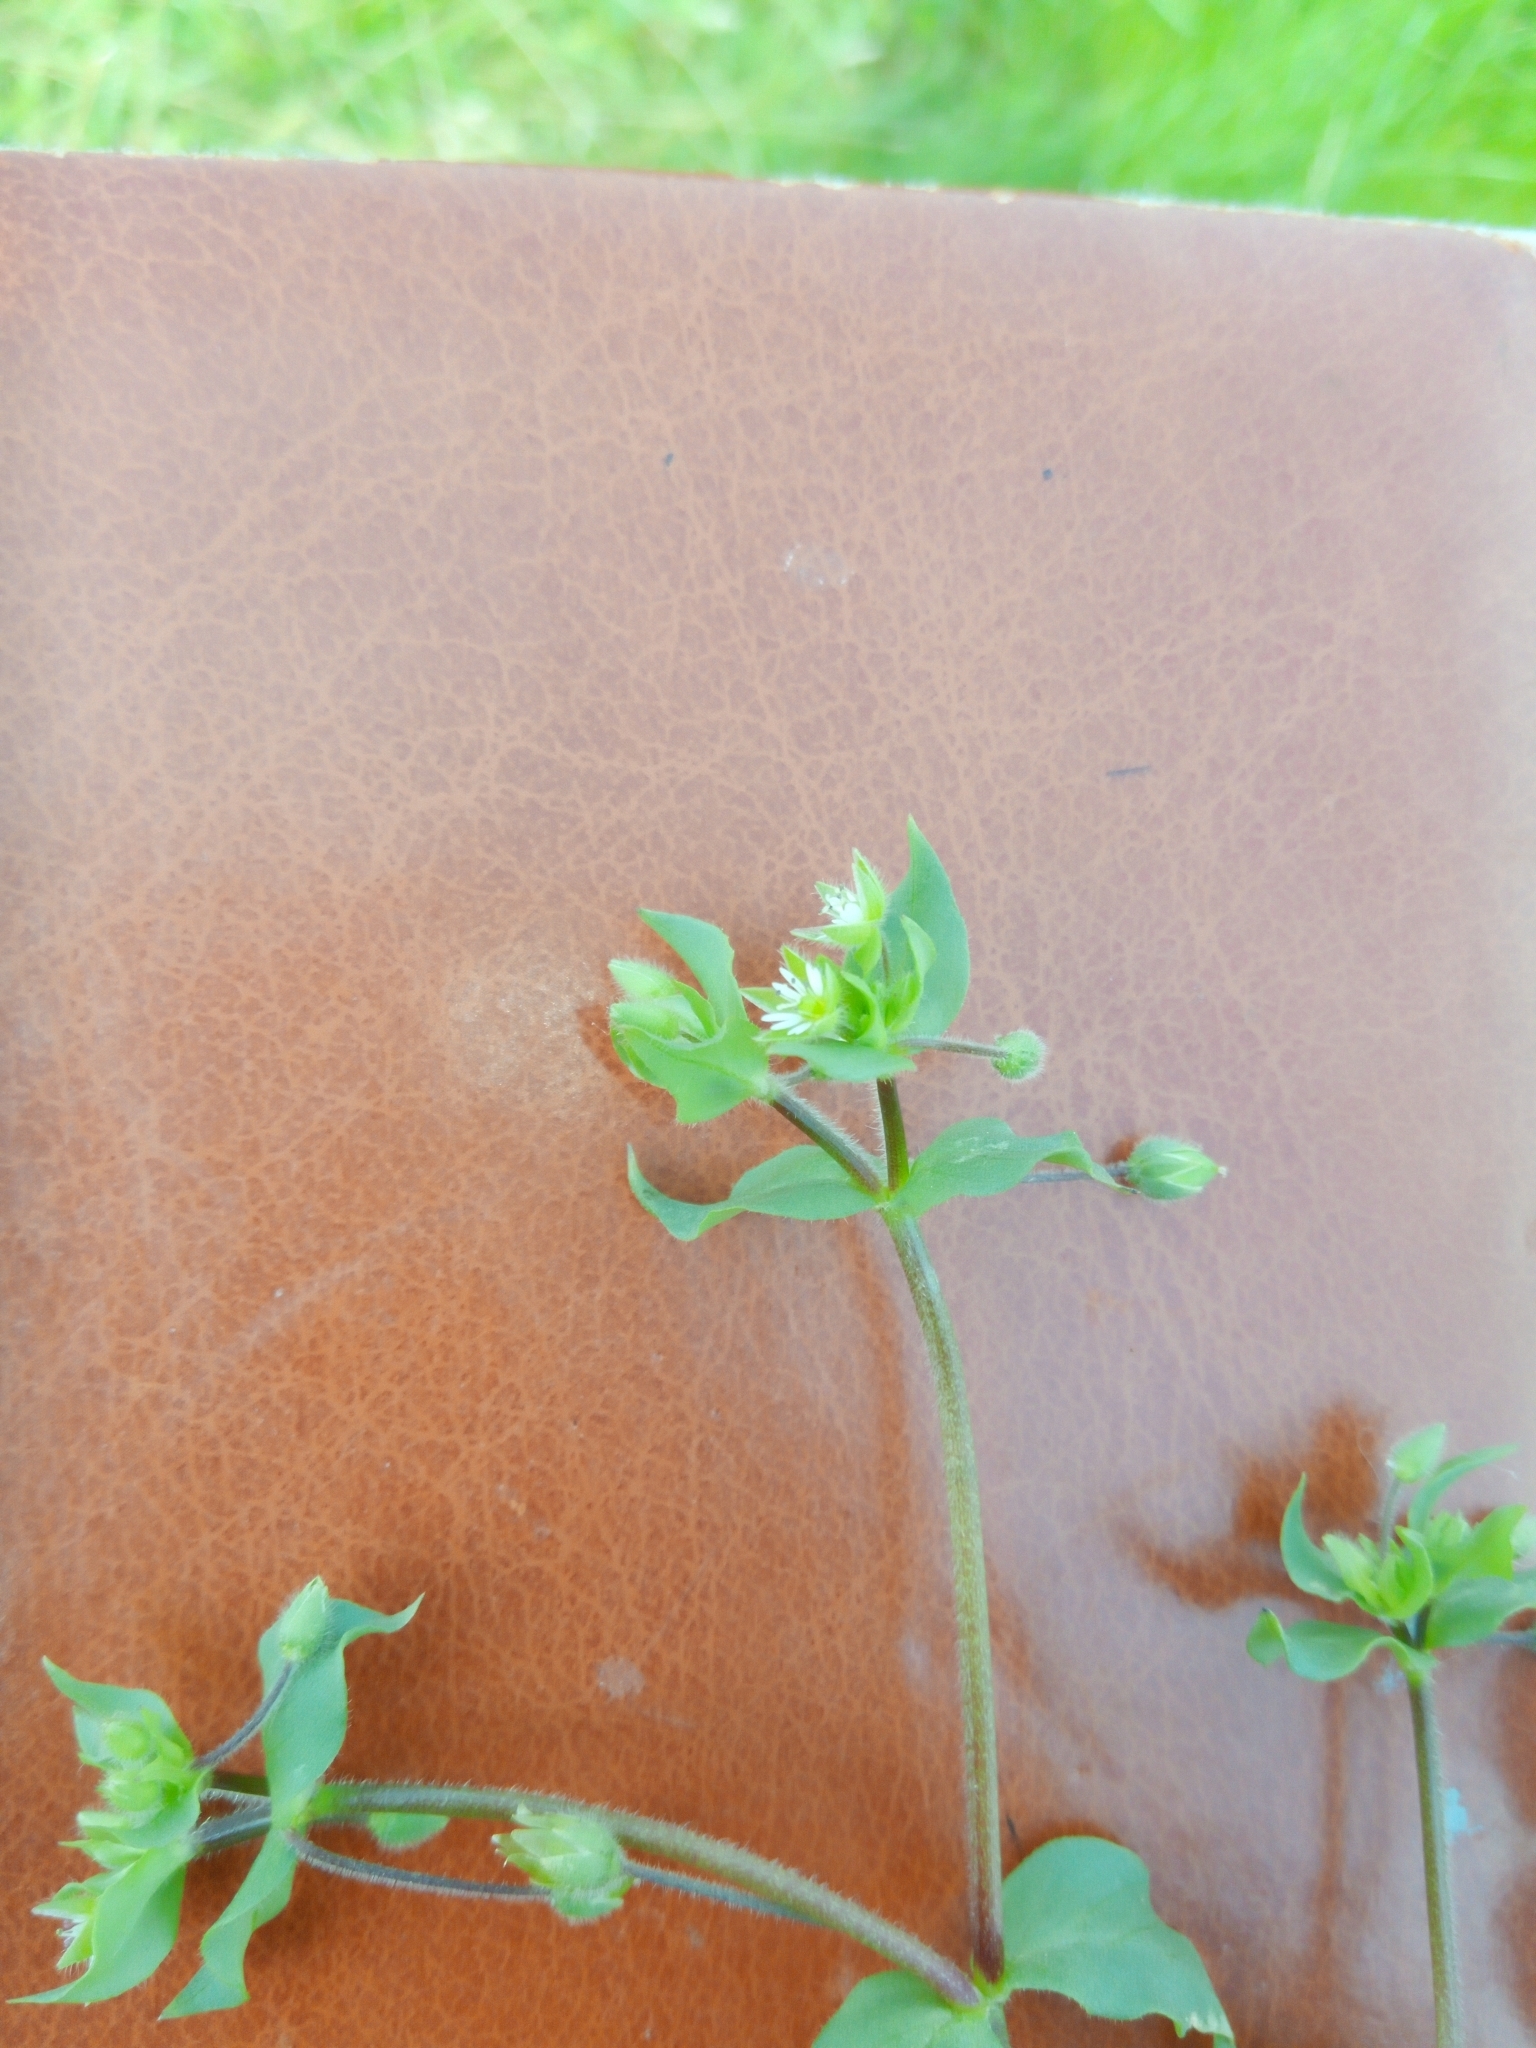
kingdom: Plantae
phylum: Tracheophyta
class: Magnoliopsida
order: Caryophyllales
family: Caryophyllaceae
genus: Stellaria
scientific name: Stellaria media
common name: Common chickweed
